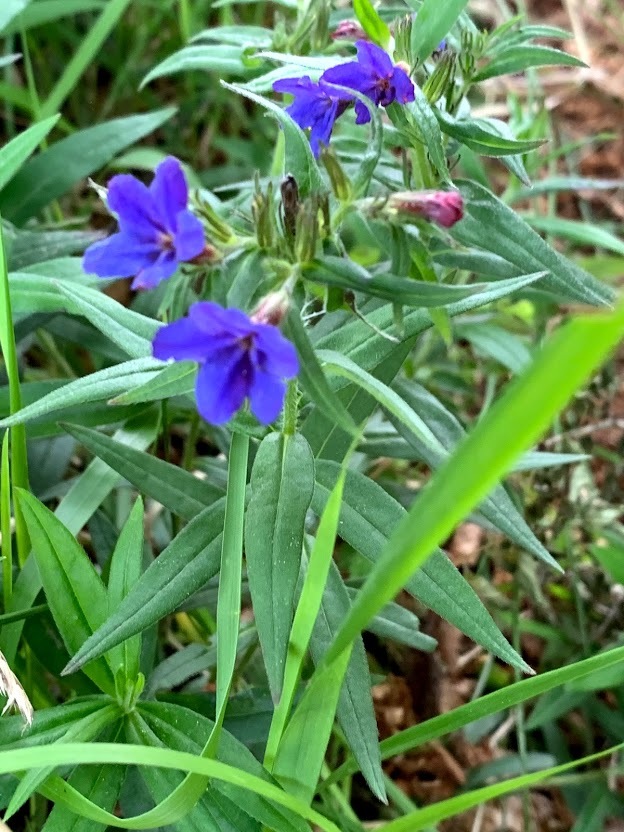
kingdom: Plantae
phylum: Tracheophyta
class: Magnoliopsida
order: Boraginales
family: Boraginaceae
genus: Aegonychon
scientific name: Aegonychon purpurocaeruleum
